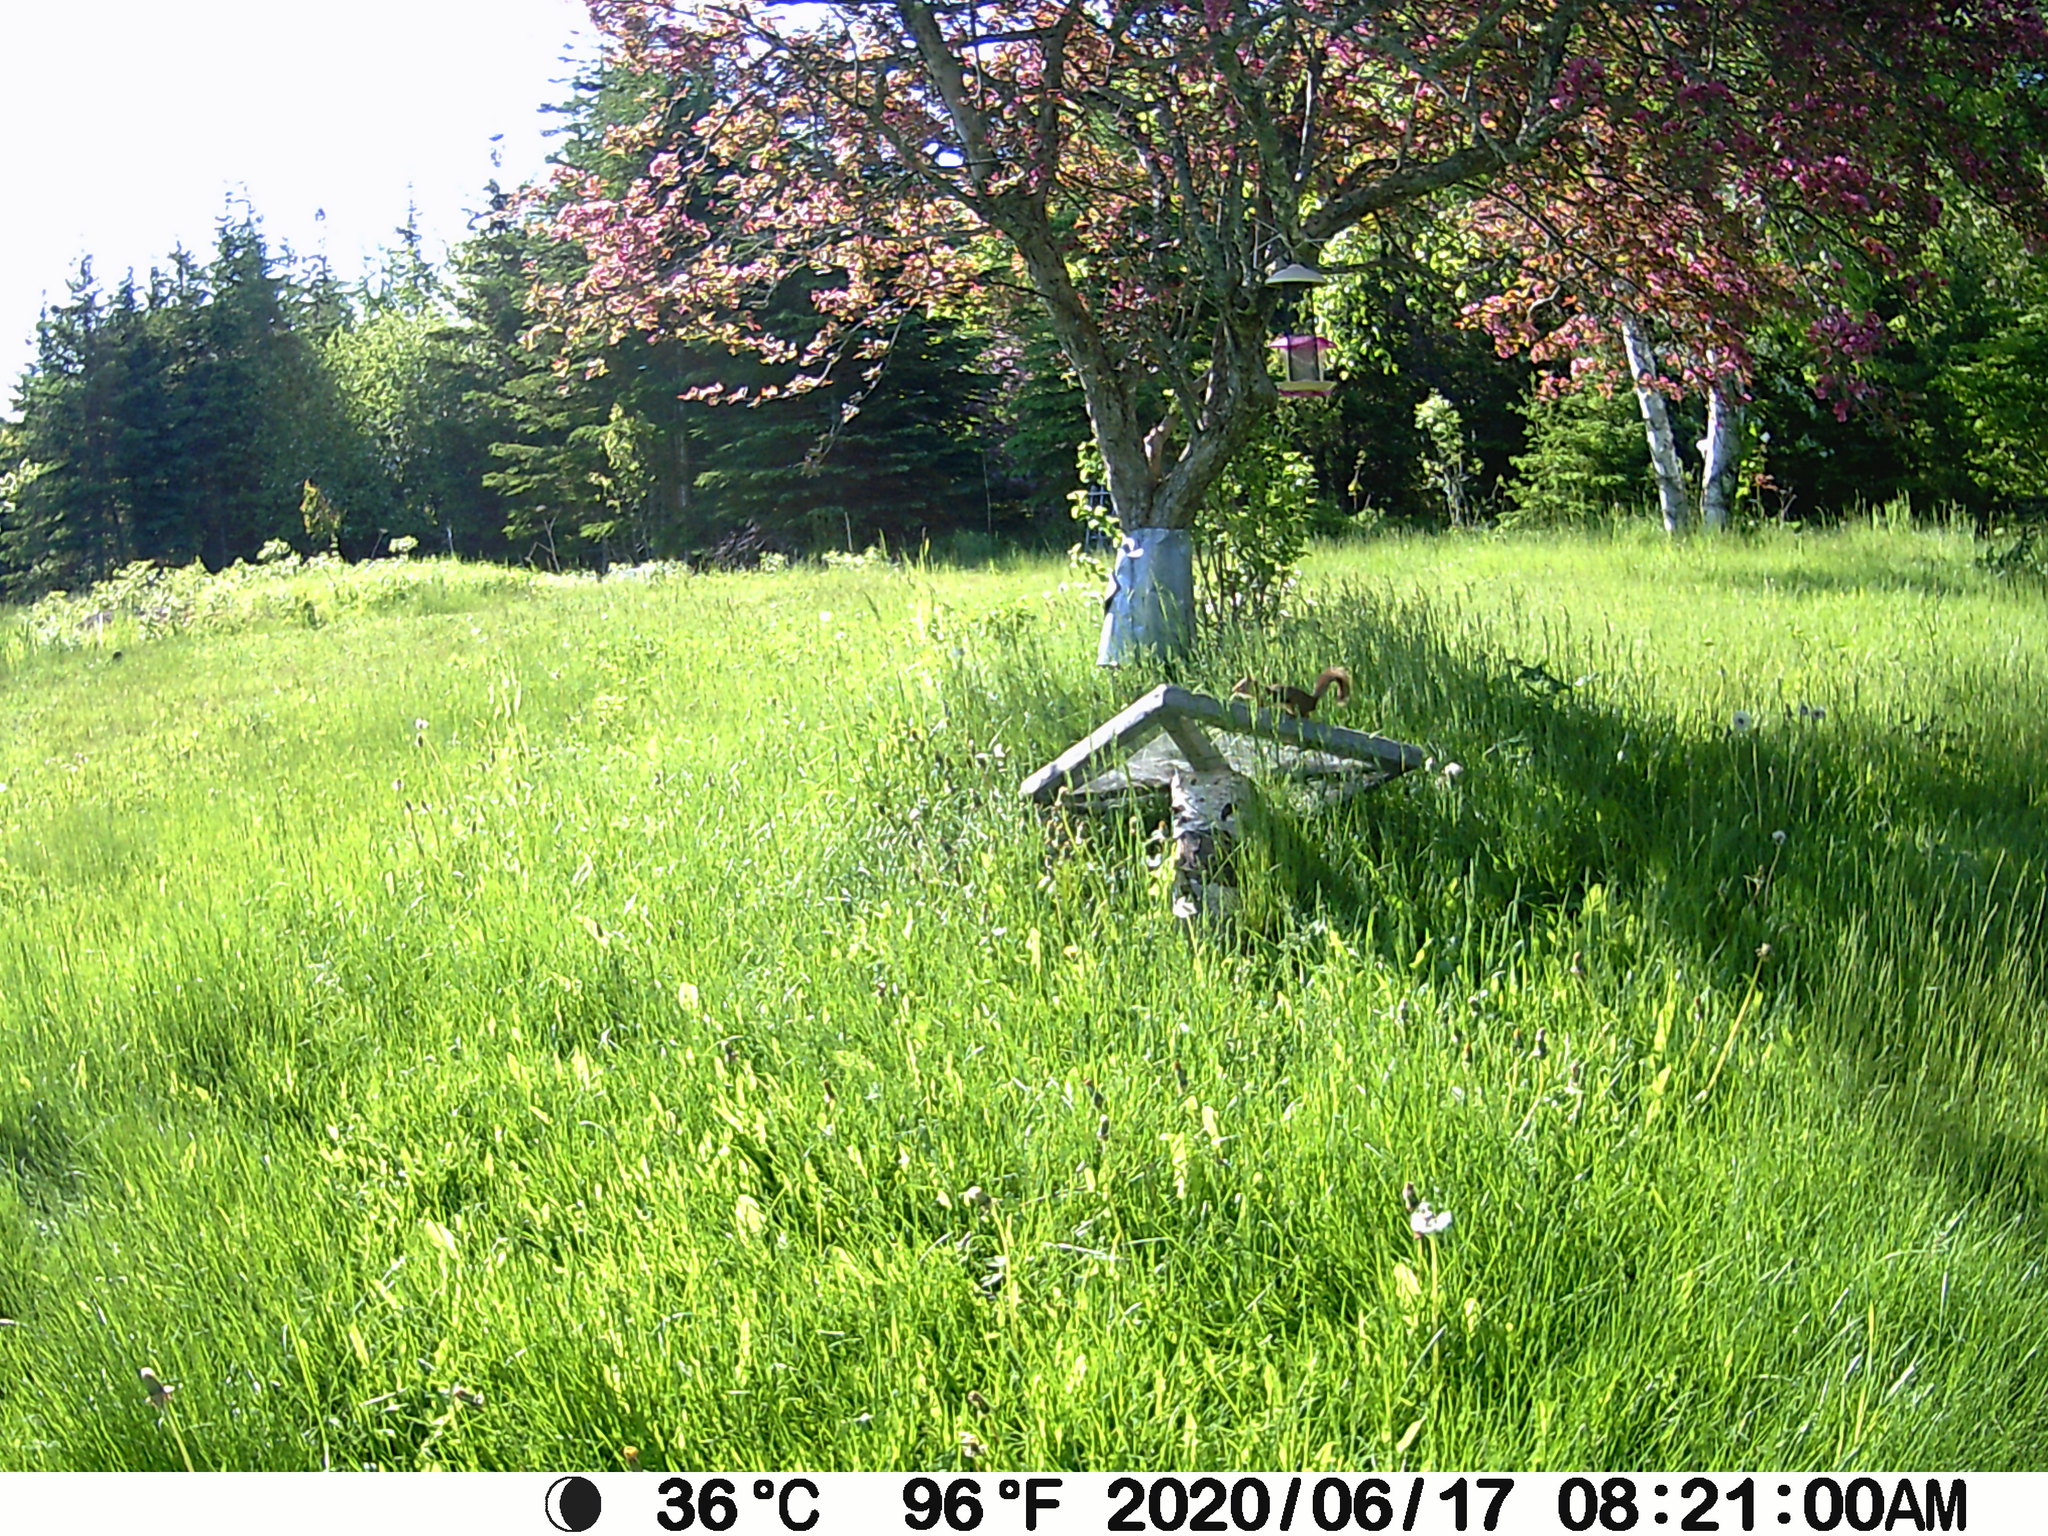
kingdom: Animalia
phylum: Chordata
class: Mammalia
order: Rodentia
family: Sciuridae
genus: Tamiasciurus
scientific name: Tamiasciurus hudsonicus
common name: Red squirrel
